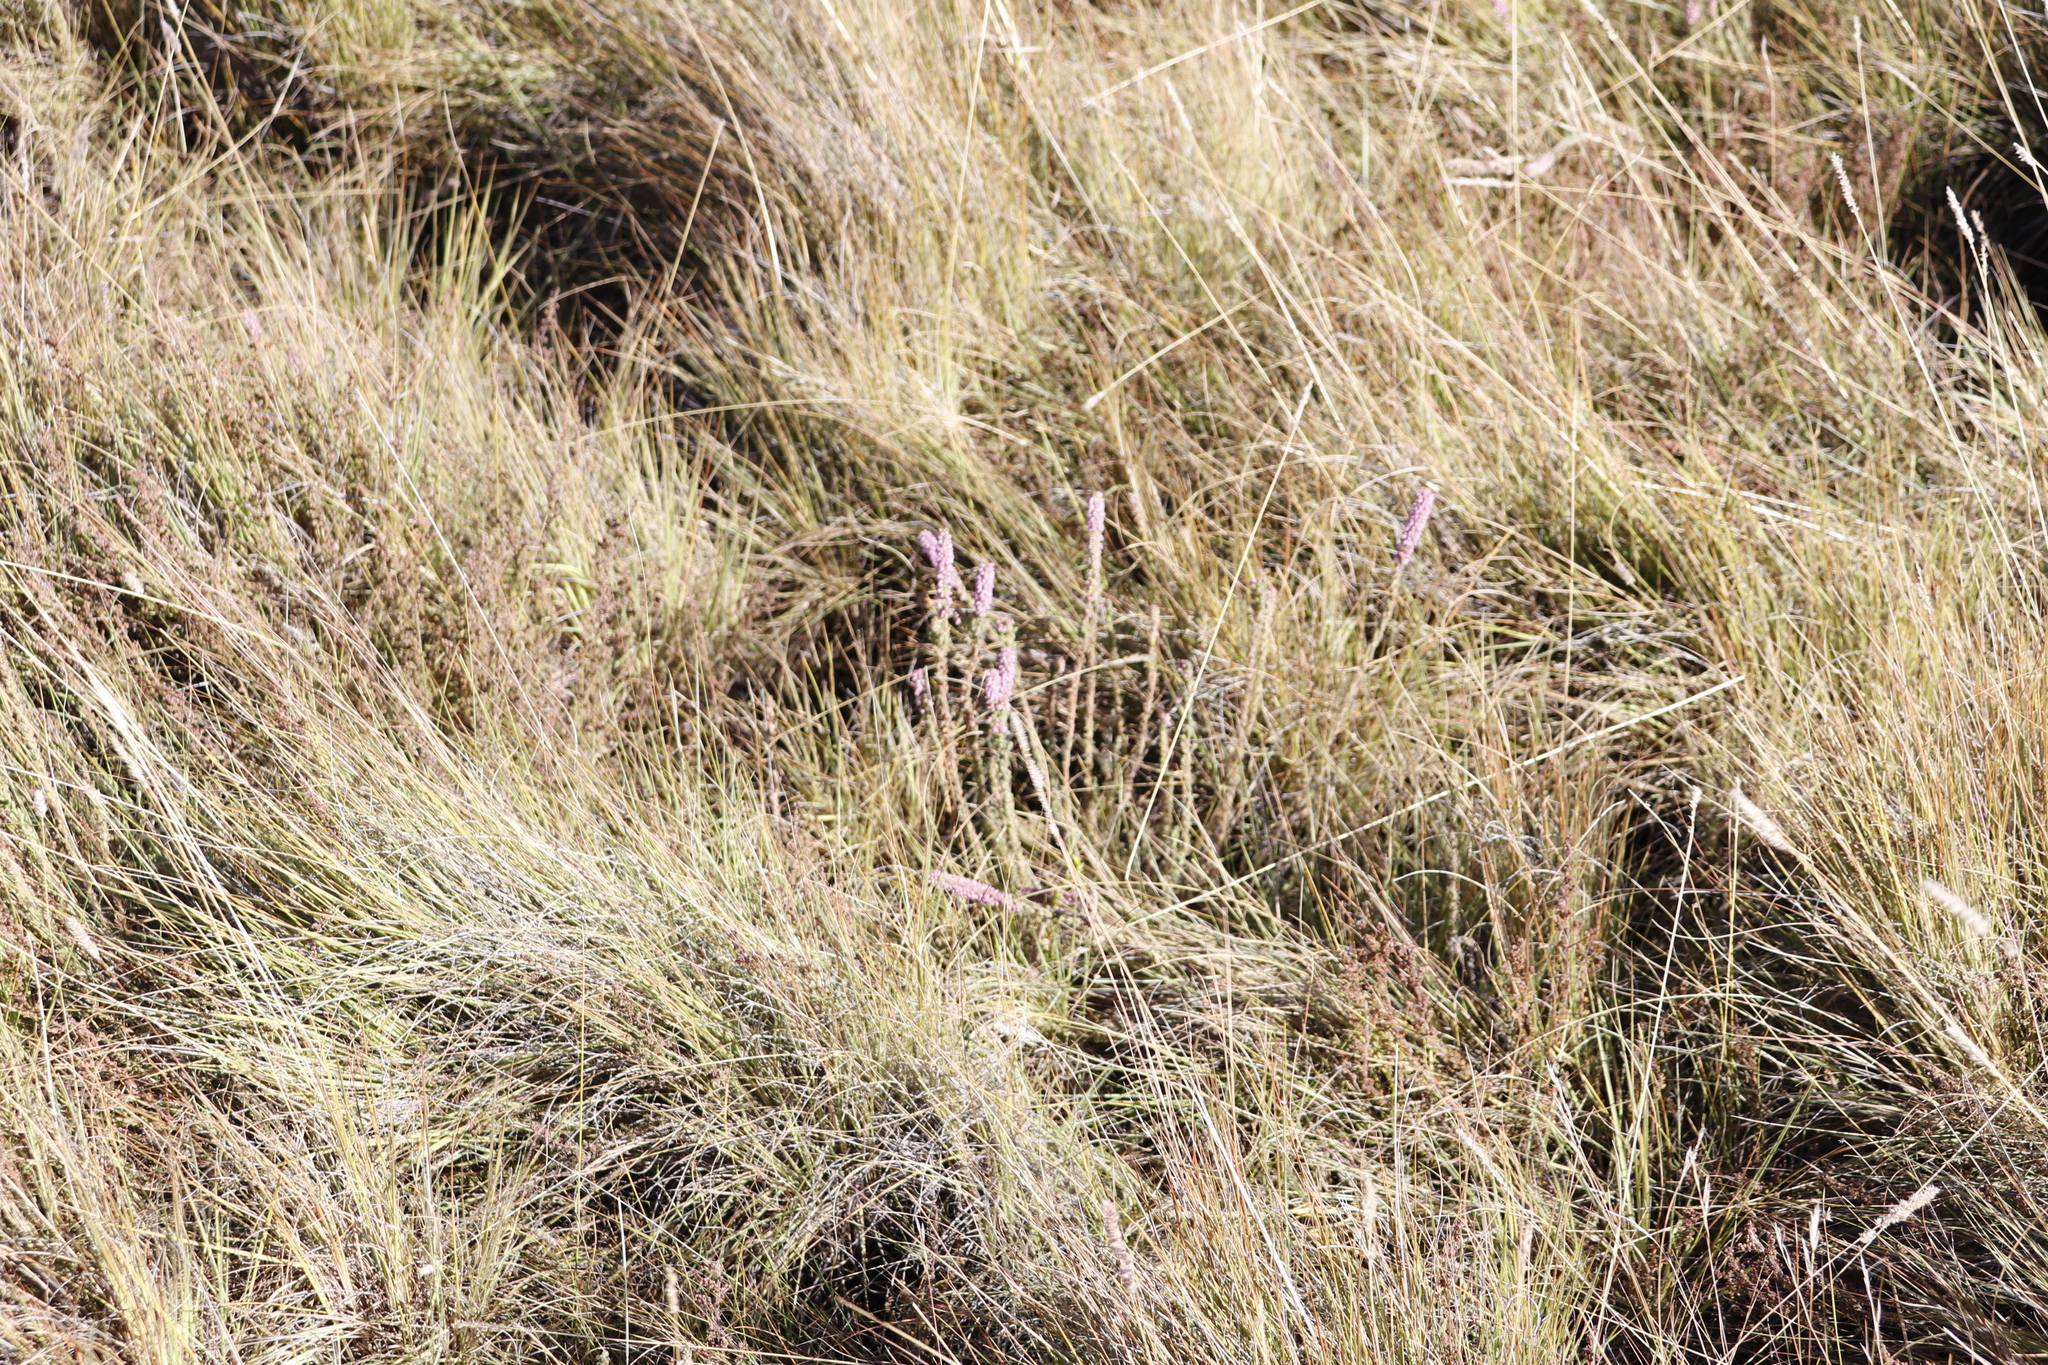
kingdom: Plantae
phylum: Tracheophyta
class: Magnoliopsida
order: Ericales
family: Ericaceae
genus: Erica
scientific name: Erica alopecurus
